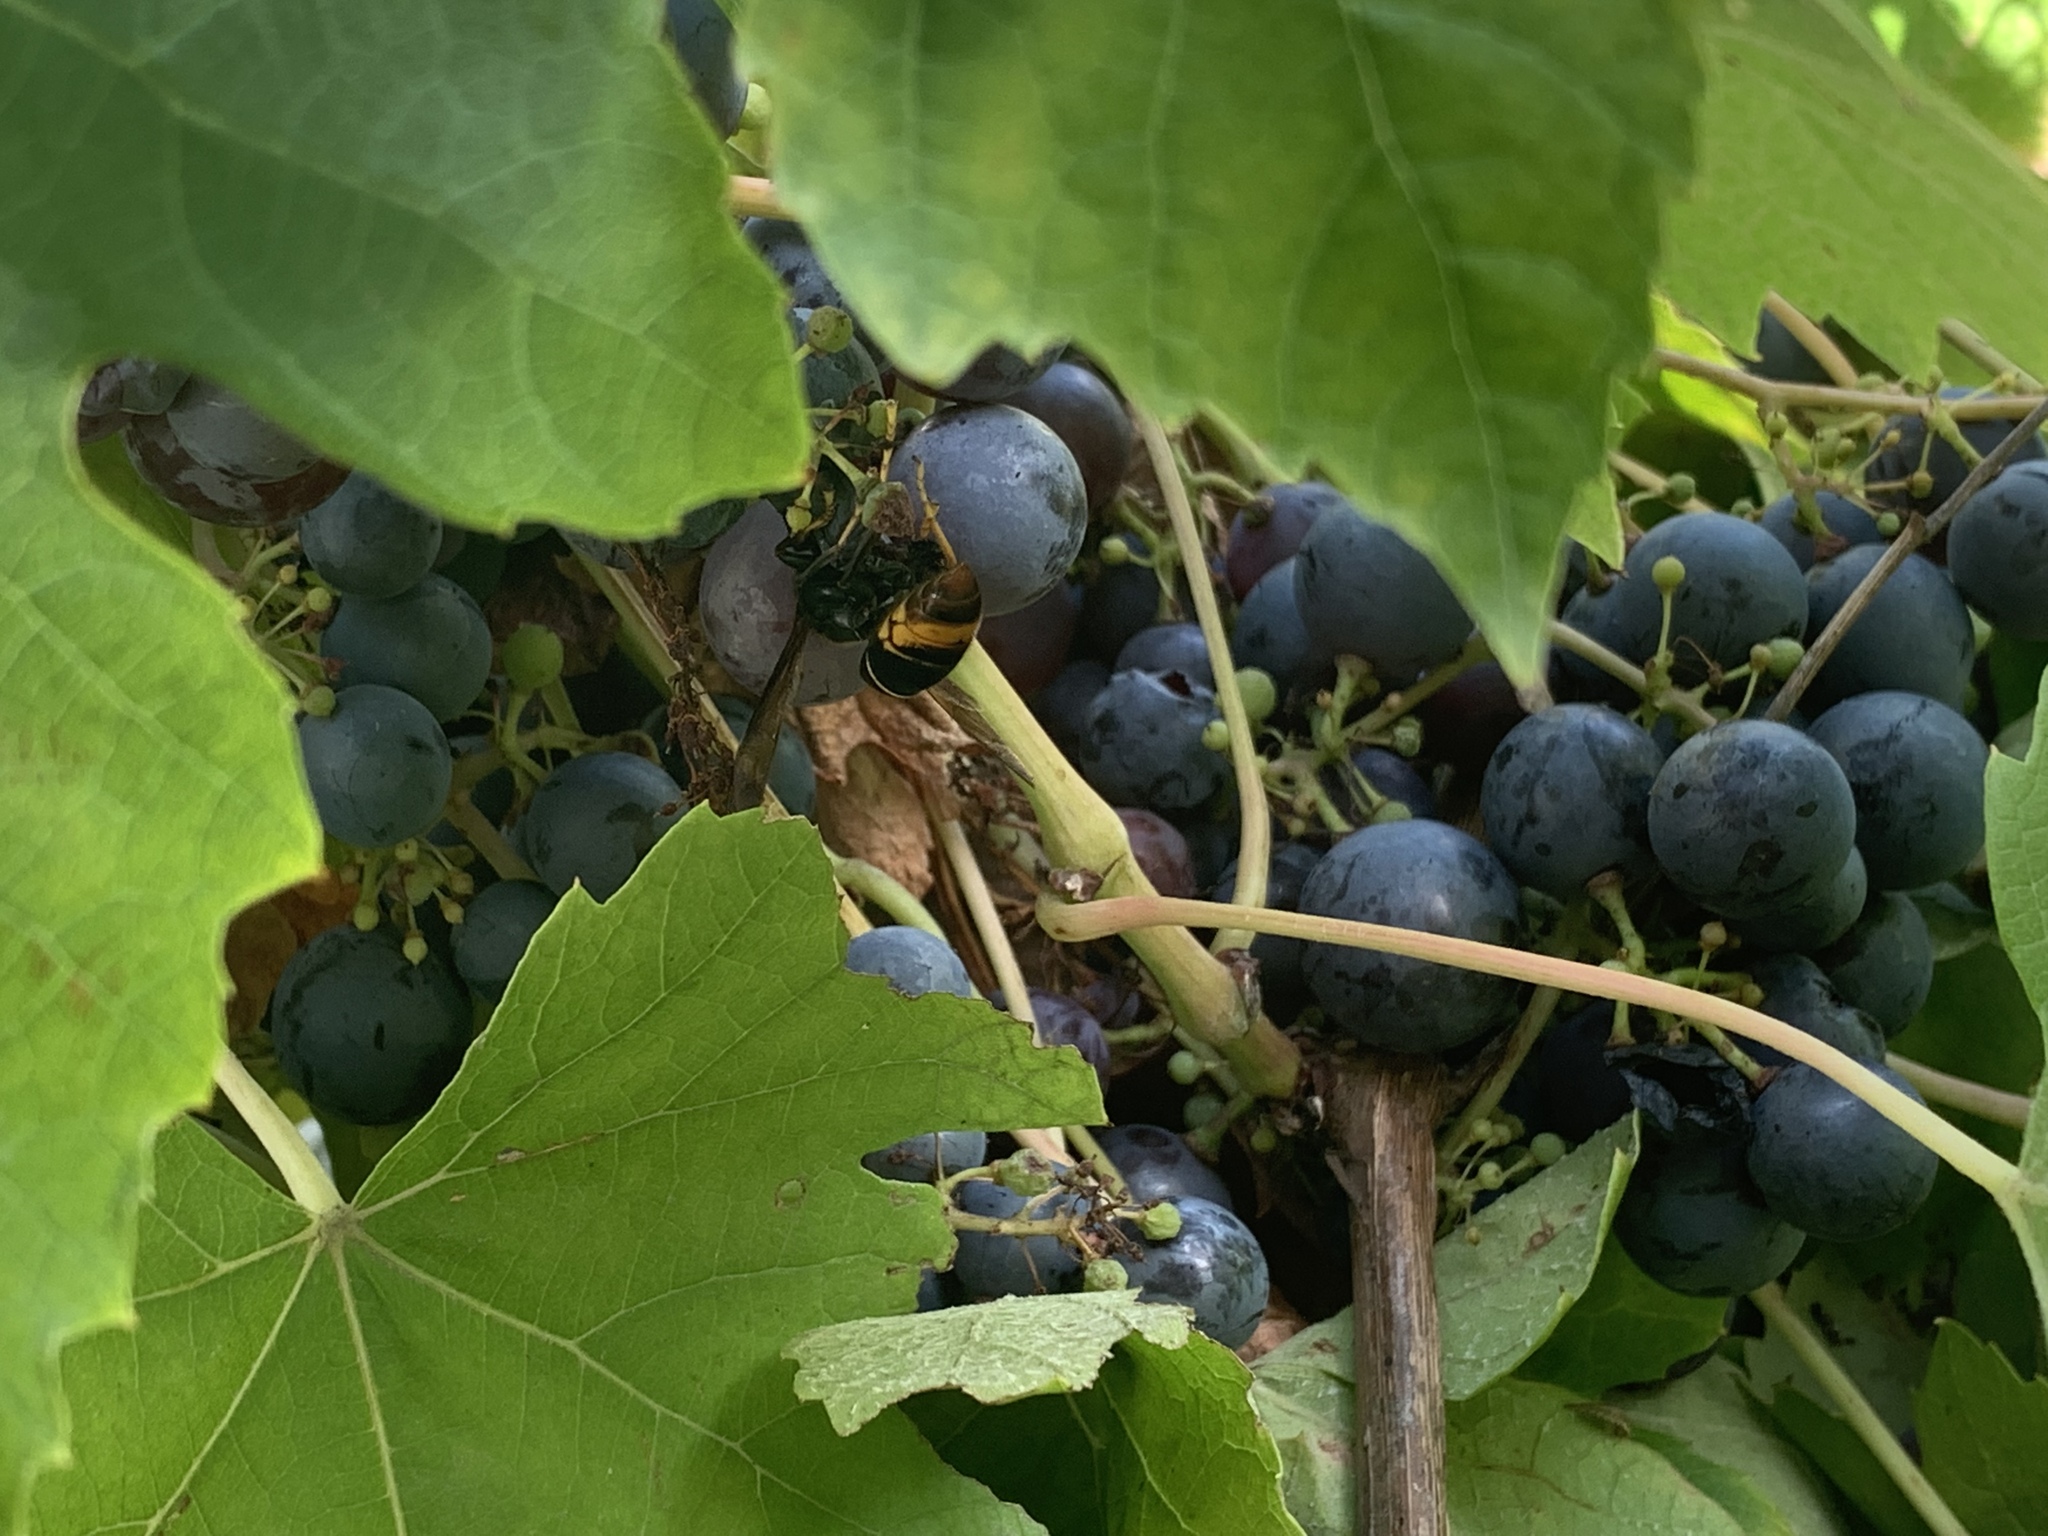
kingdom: Animalia
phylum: Arthropoda
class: Insecta
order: Hymenoptera
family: Vespidae
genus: Vespa
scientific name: Vespa velutina
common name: Asian hornet
